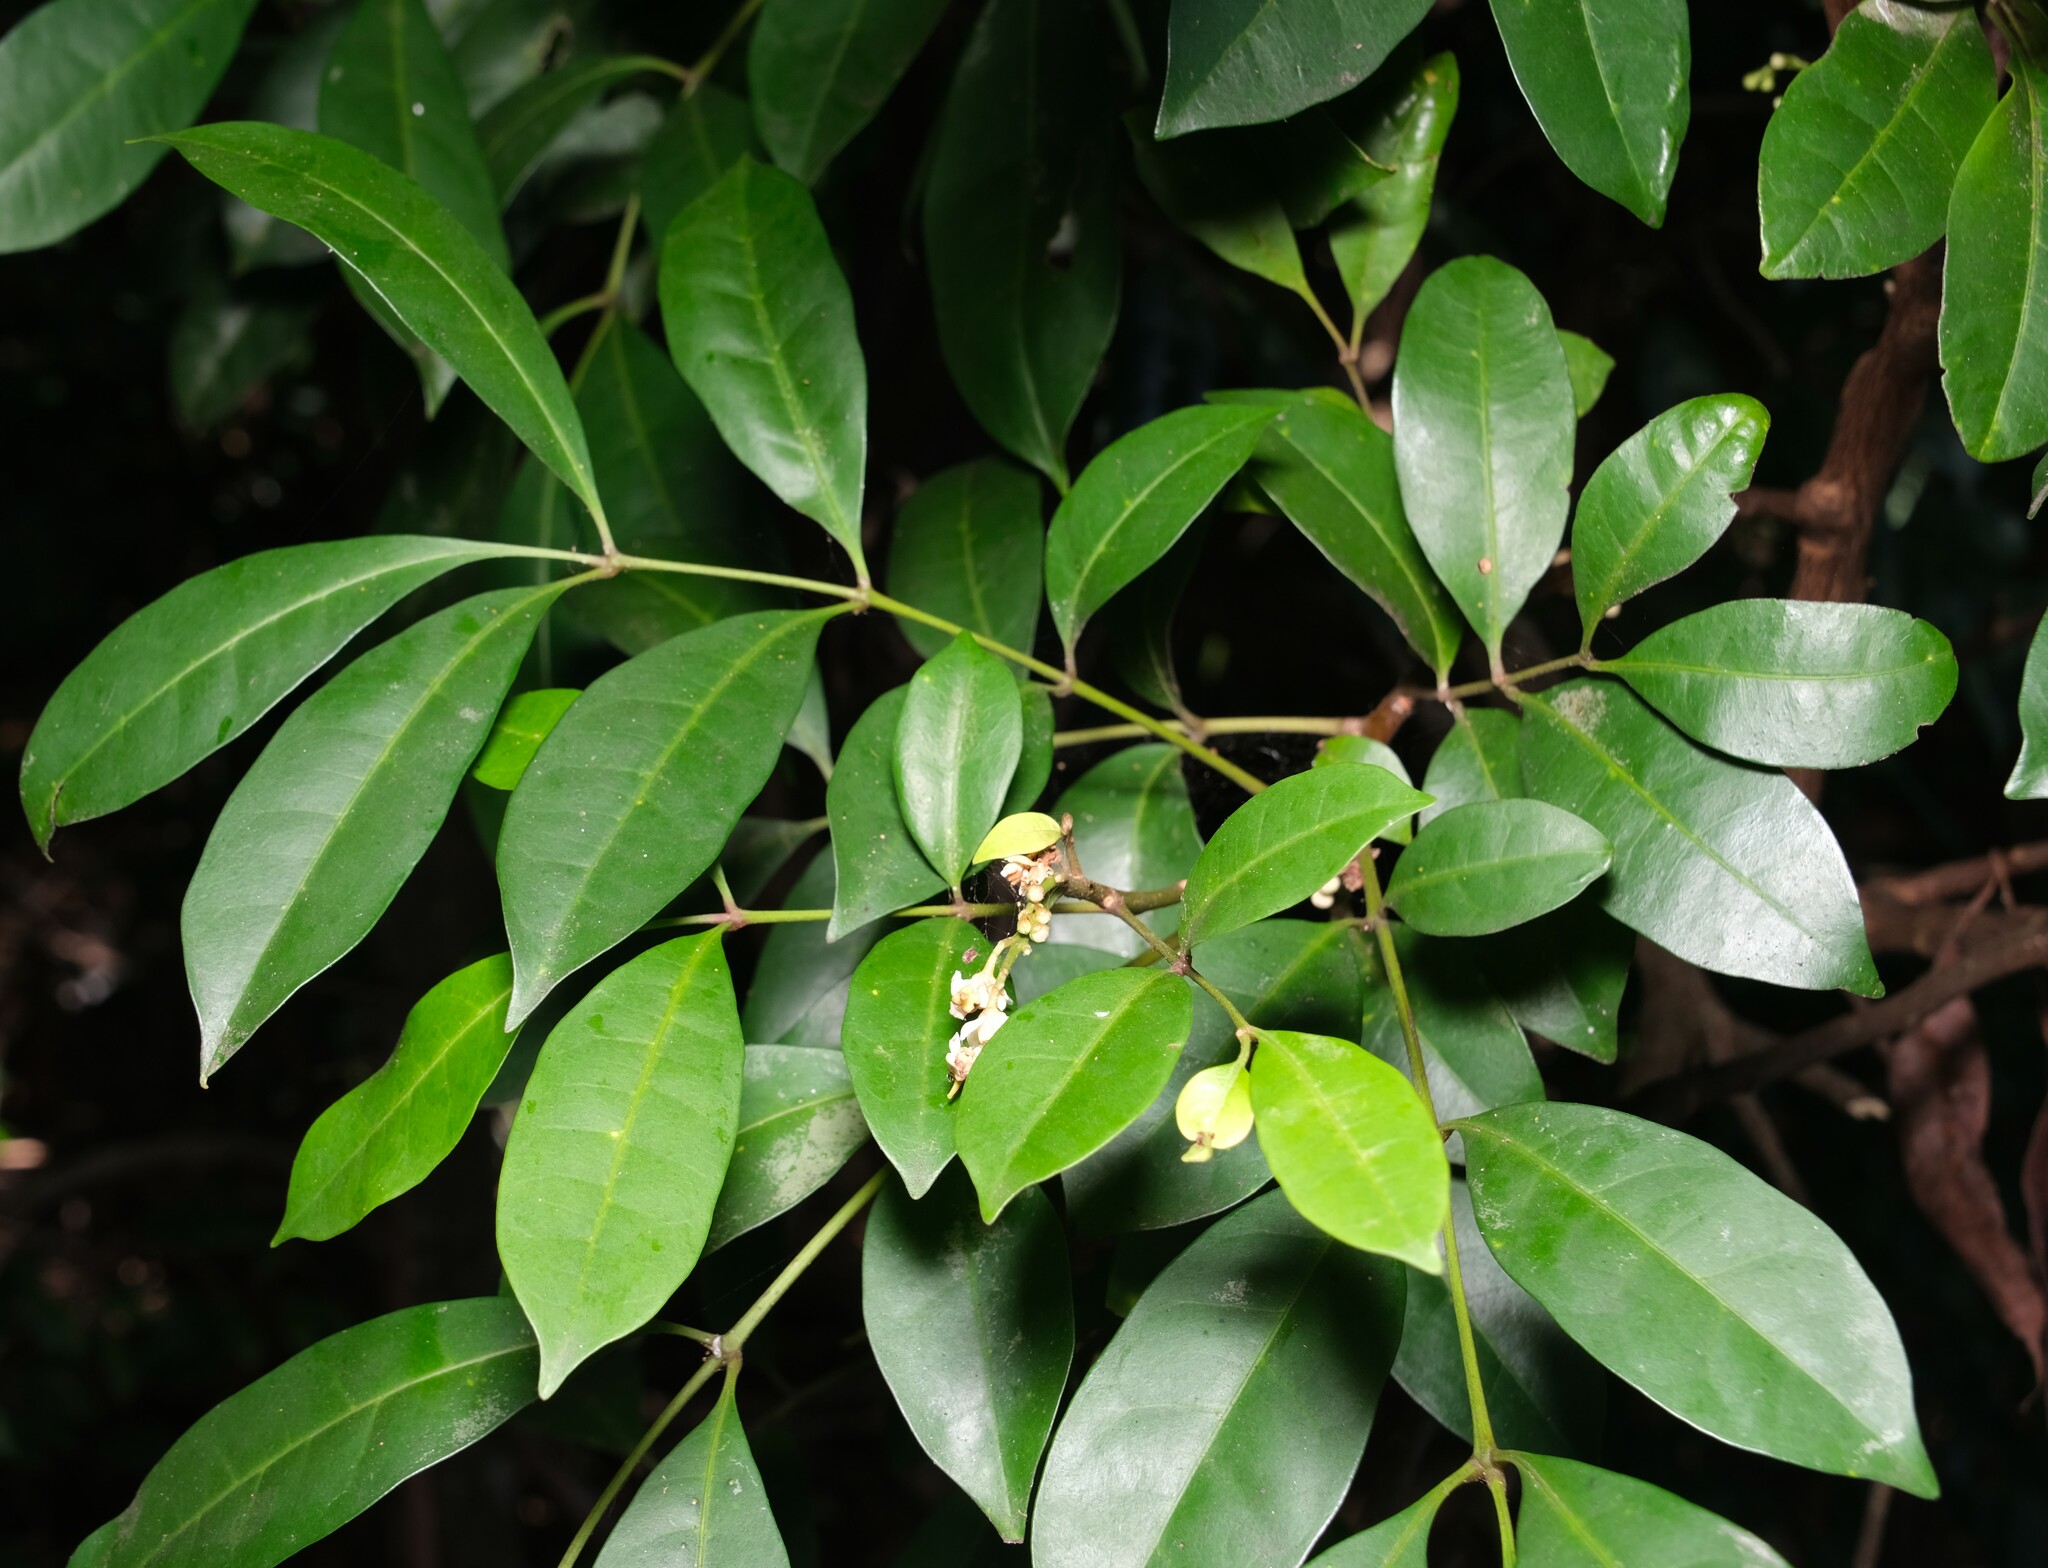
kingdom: Plantae
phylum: Tracheophyta
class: Magnoliopsida
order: Sapindales
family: Meliaceae
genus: Synoum
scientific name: Synoum glandulosum
